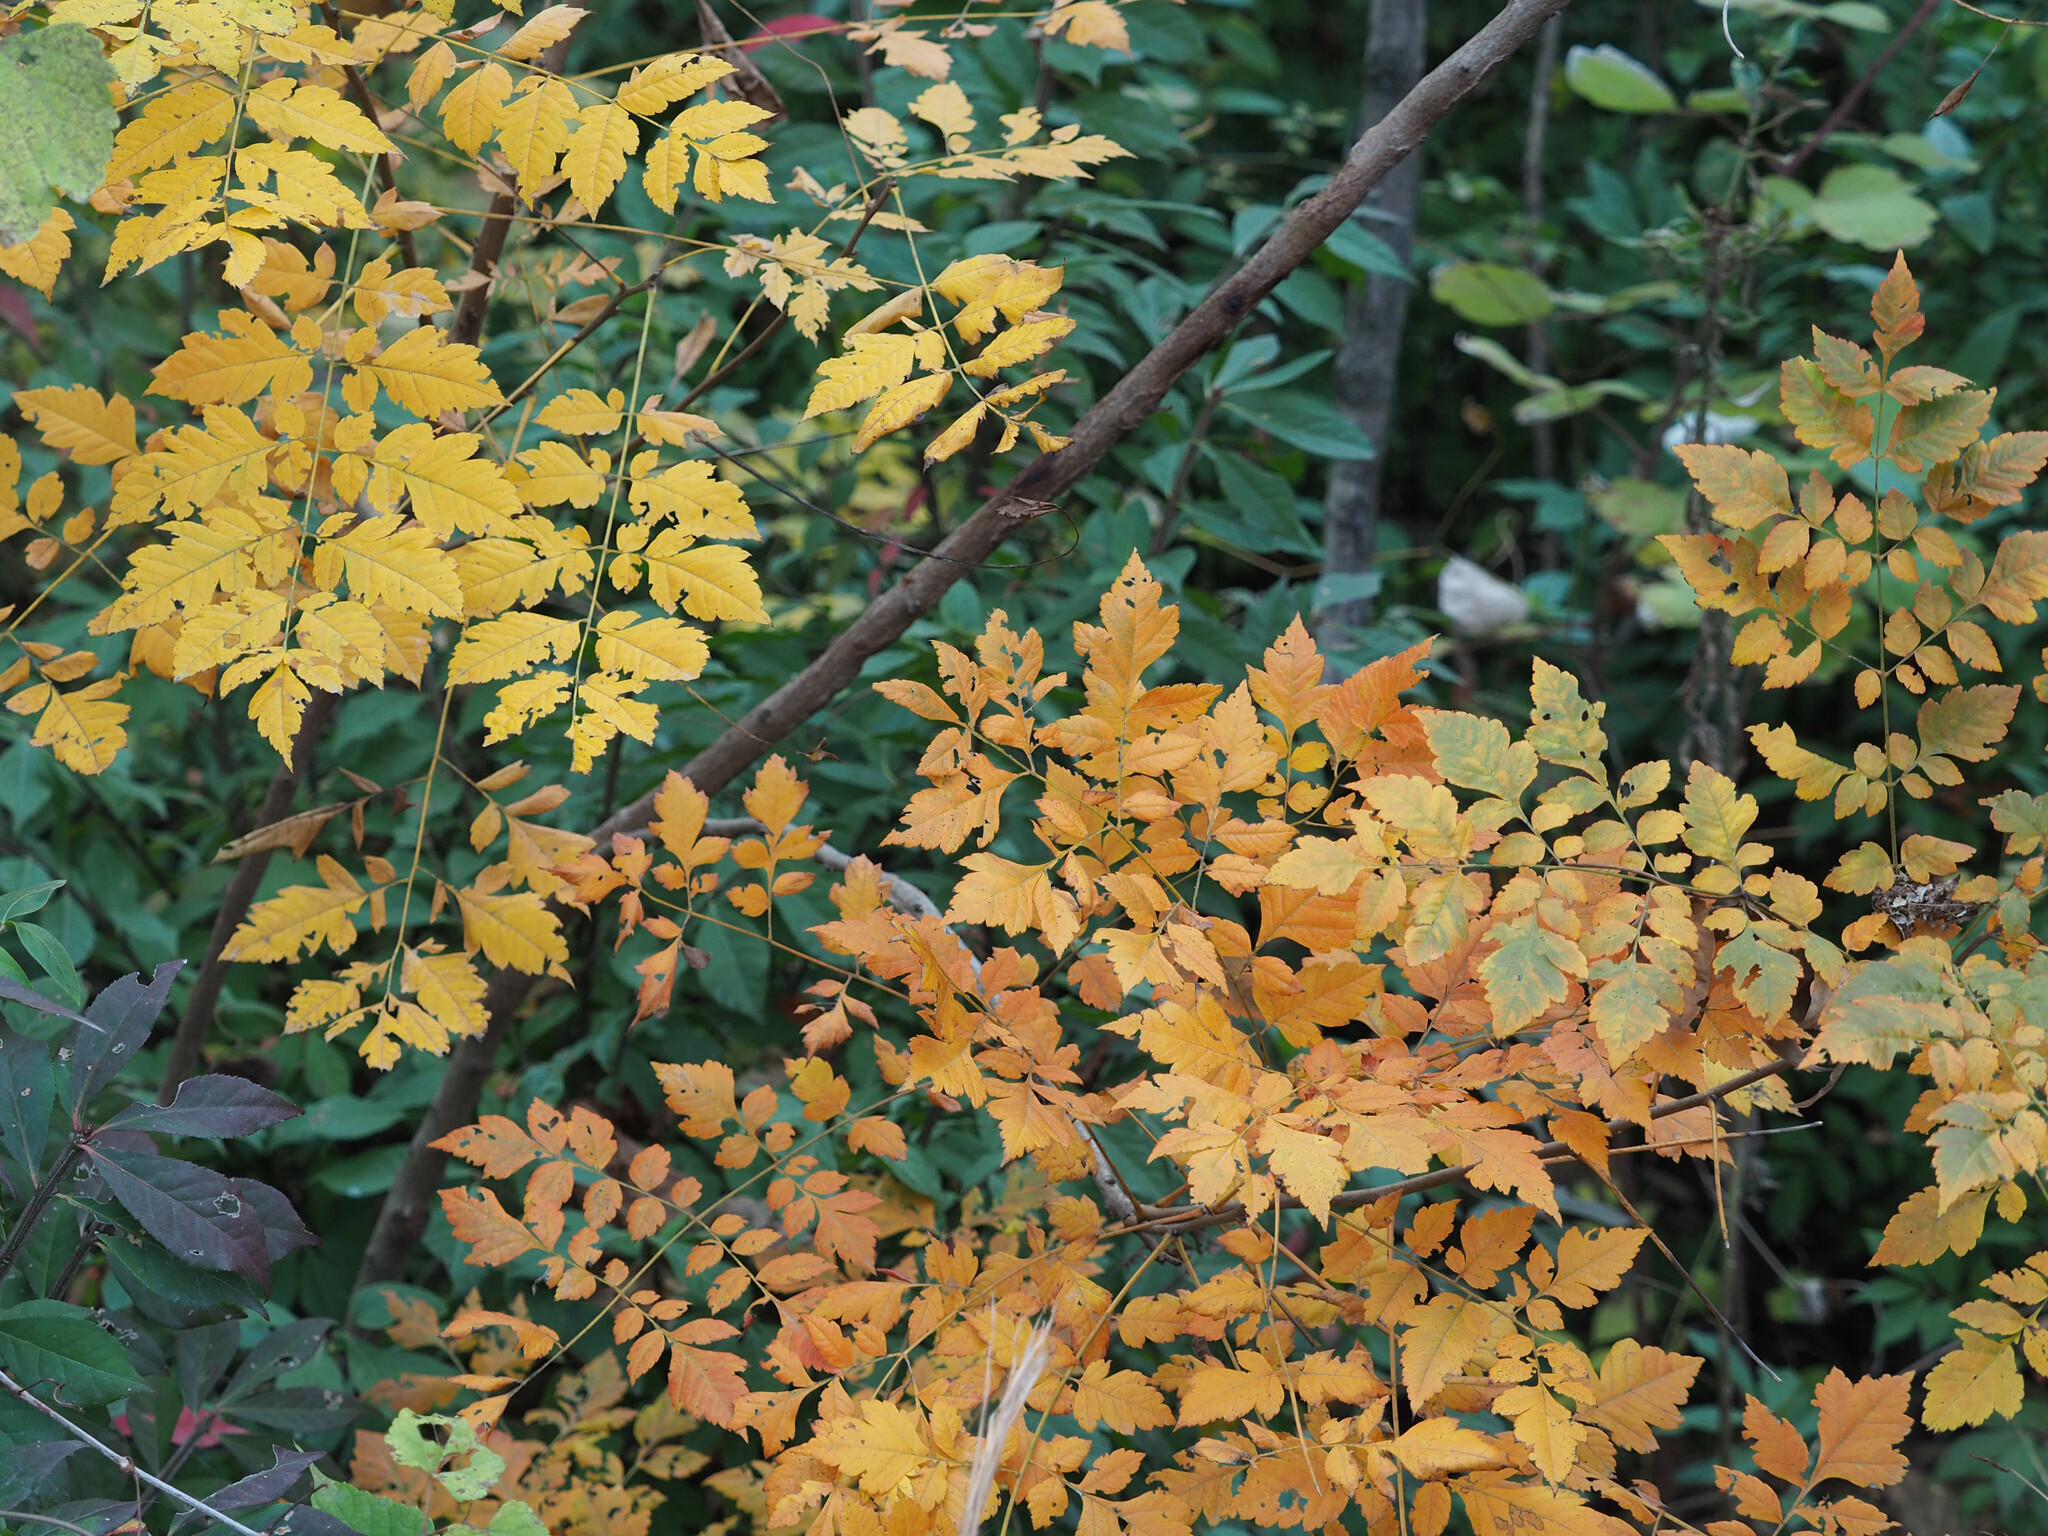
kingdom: Plantae
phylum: Tracheophyta
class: Magnoliopsida
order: Sapindales
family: Sapindaceae
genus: Koelreuteria
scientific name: Koelreuteria paniculata
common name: Pride-of-india
